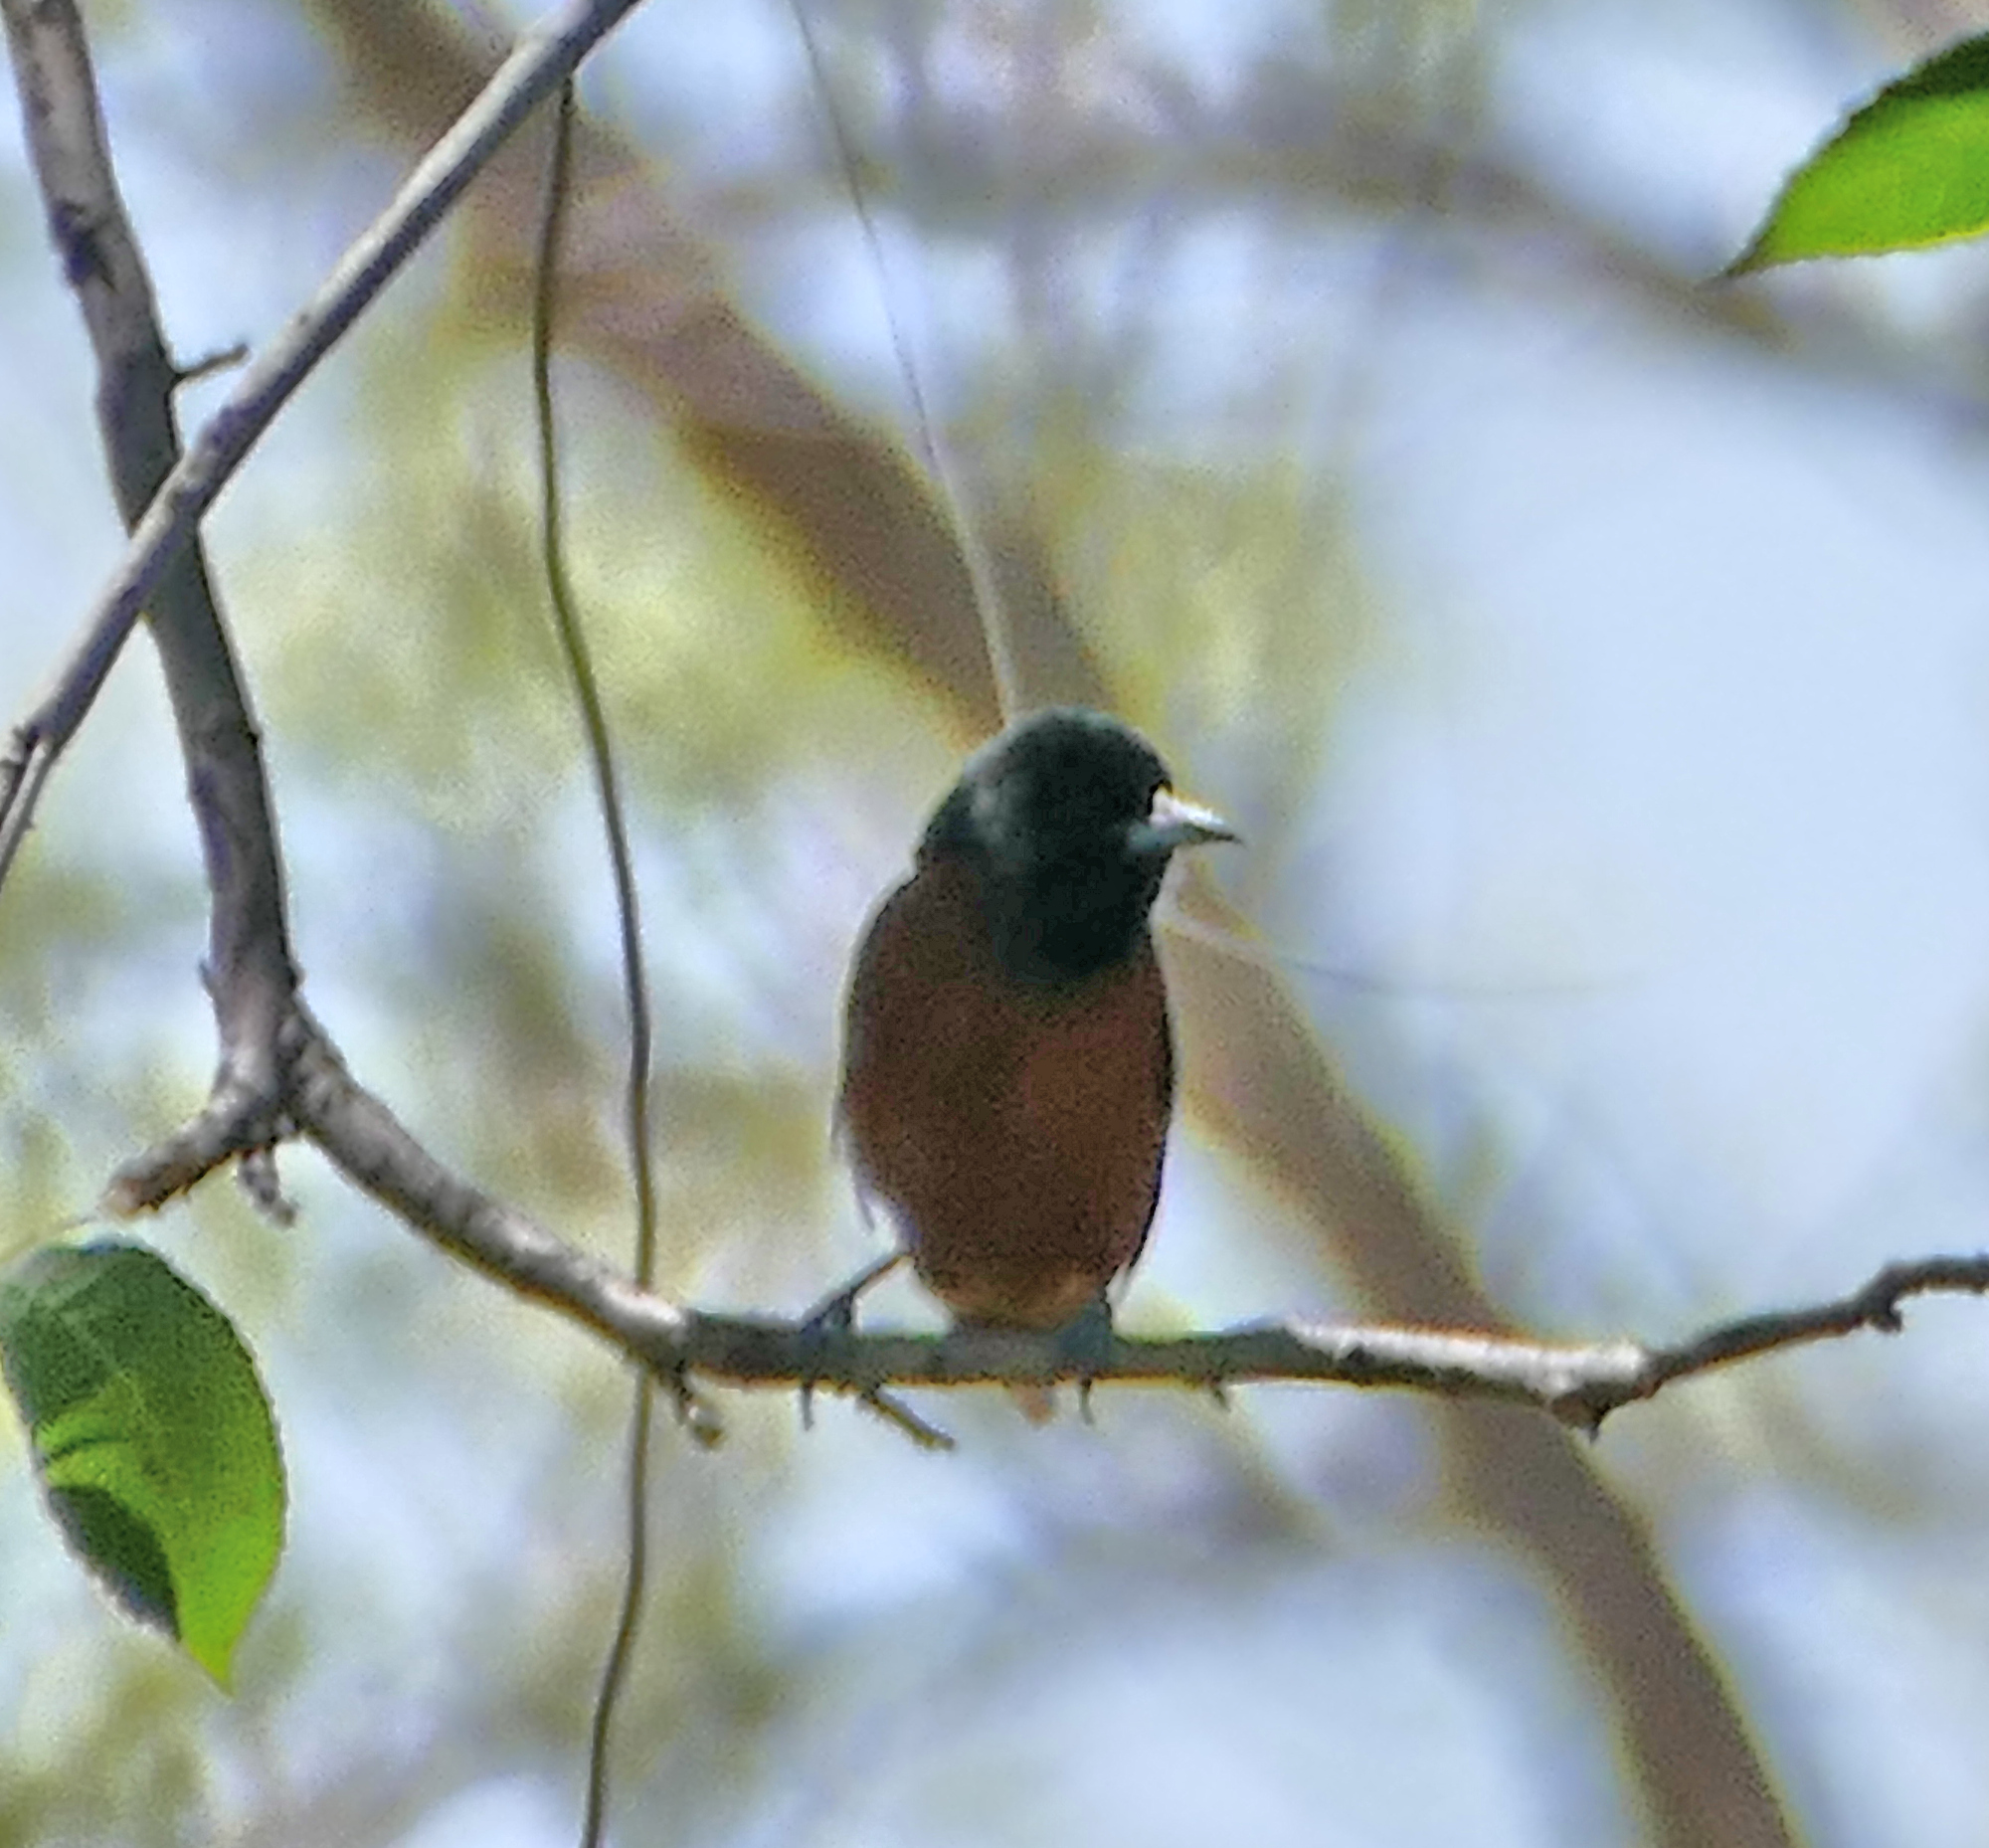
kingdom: Animalia
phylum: Chordata
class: Aves
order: Passeriformes
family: Icteridae
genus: Icterus
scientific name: Icterus spurius
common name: Orchard oriole
